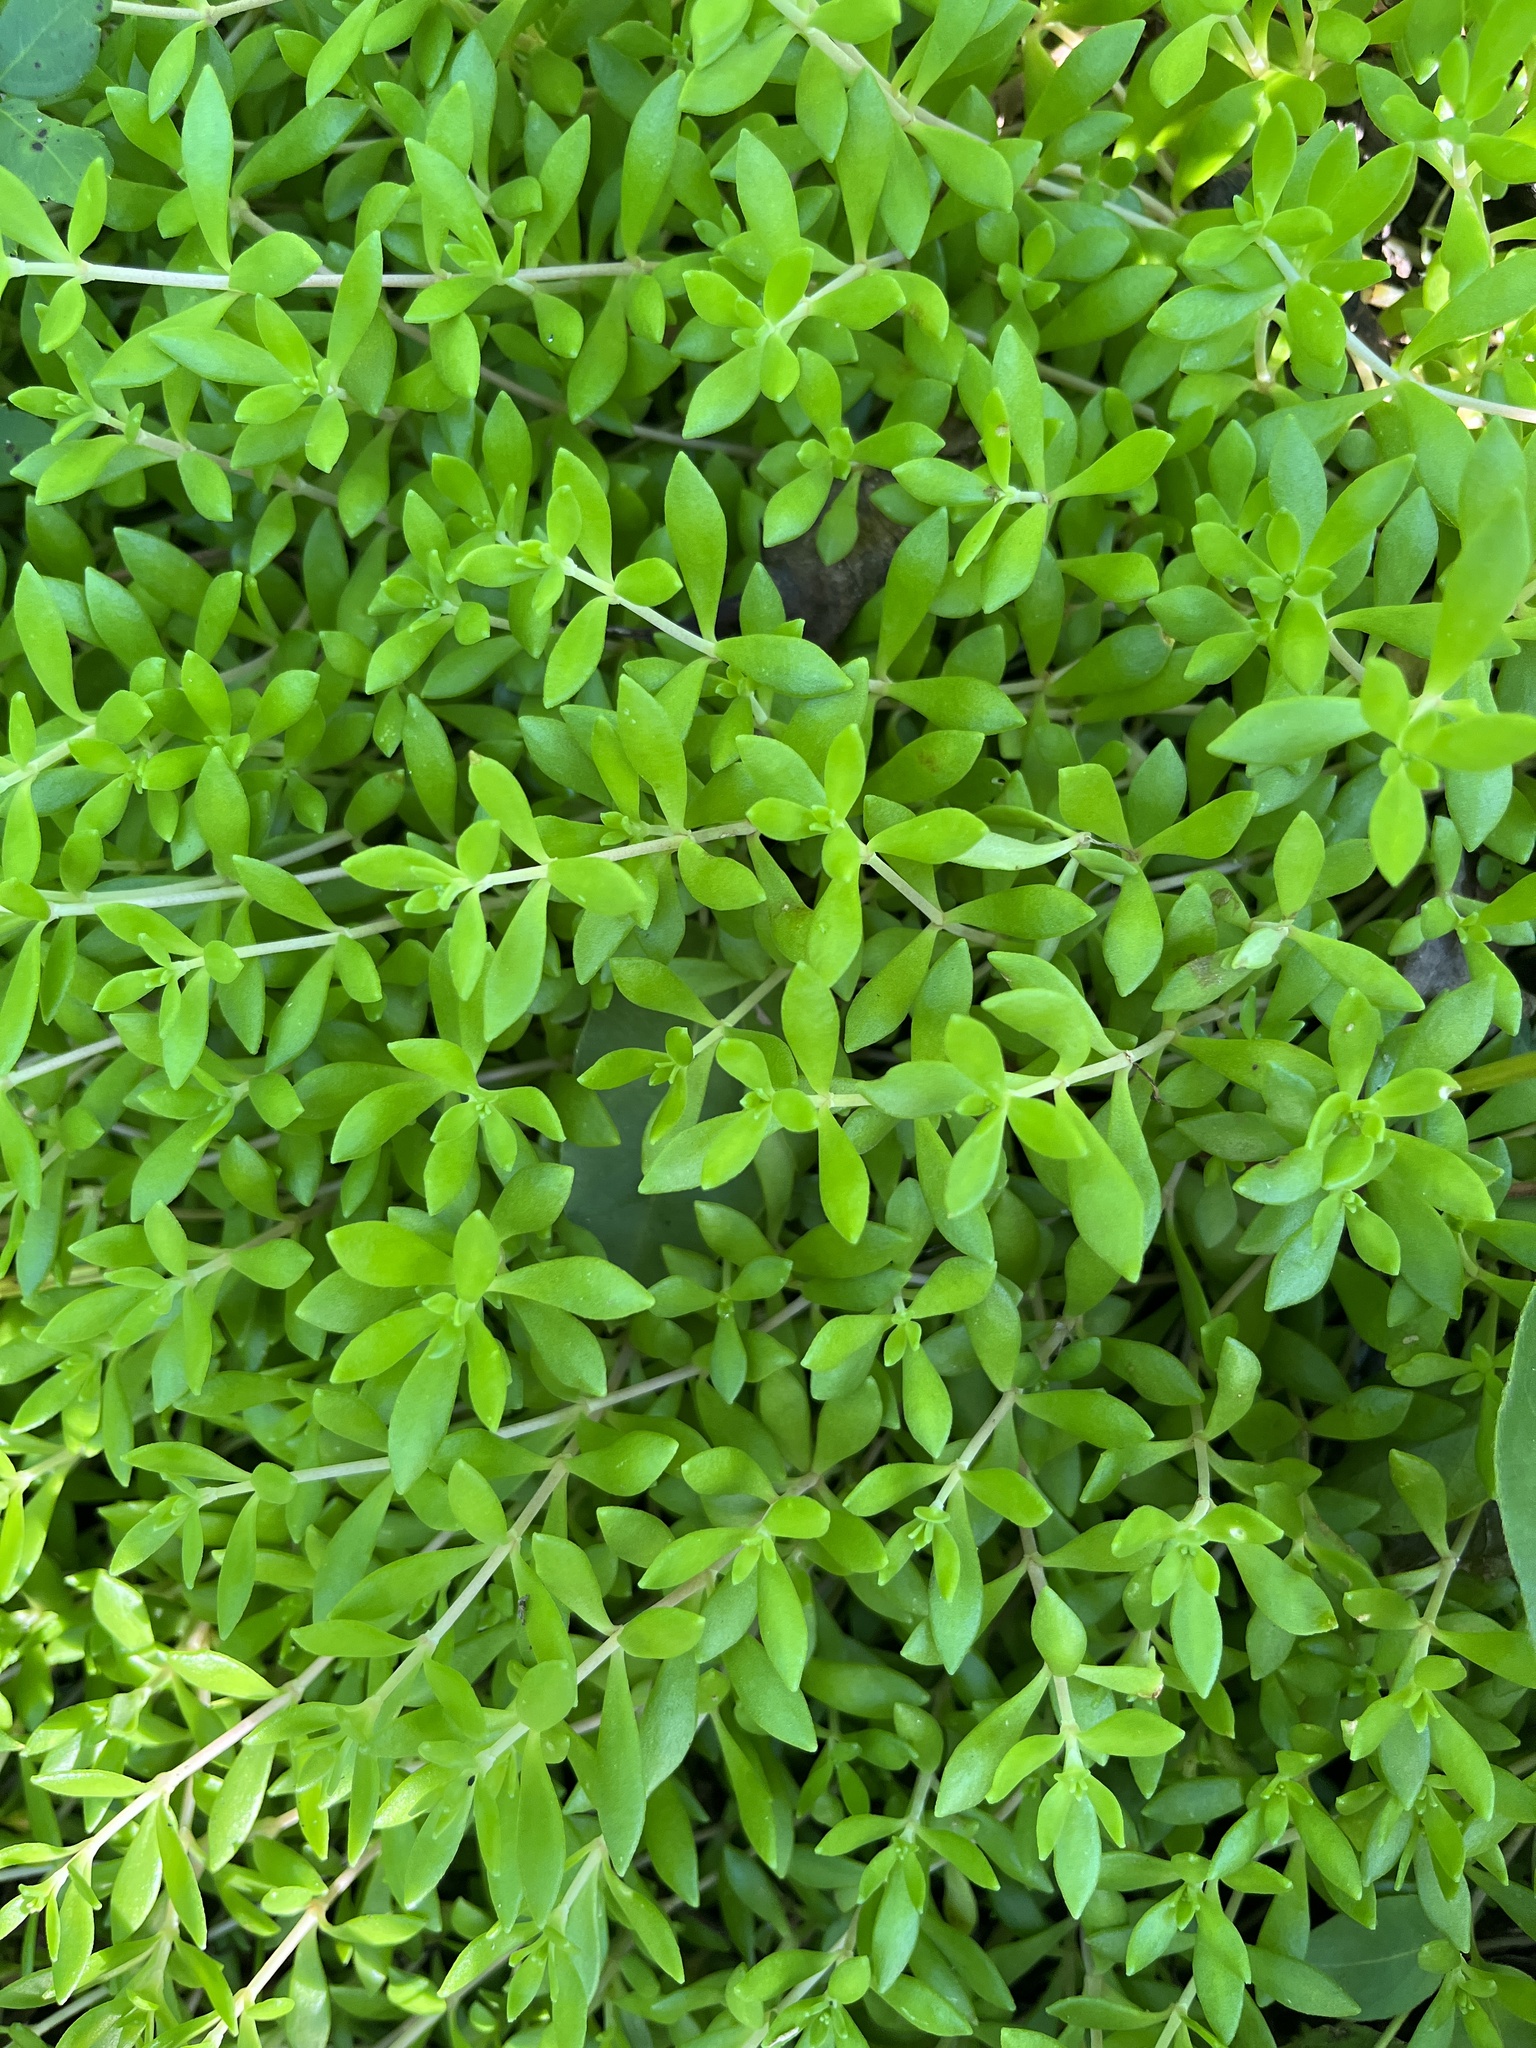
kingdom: Plantae
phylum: Tracheophyta
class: Magnoliopsida
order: Saxifragales
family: Crassulaceae
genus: Sedum
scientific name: Sedum sarmentosum
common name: Stringy stonecrop
